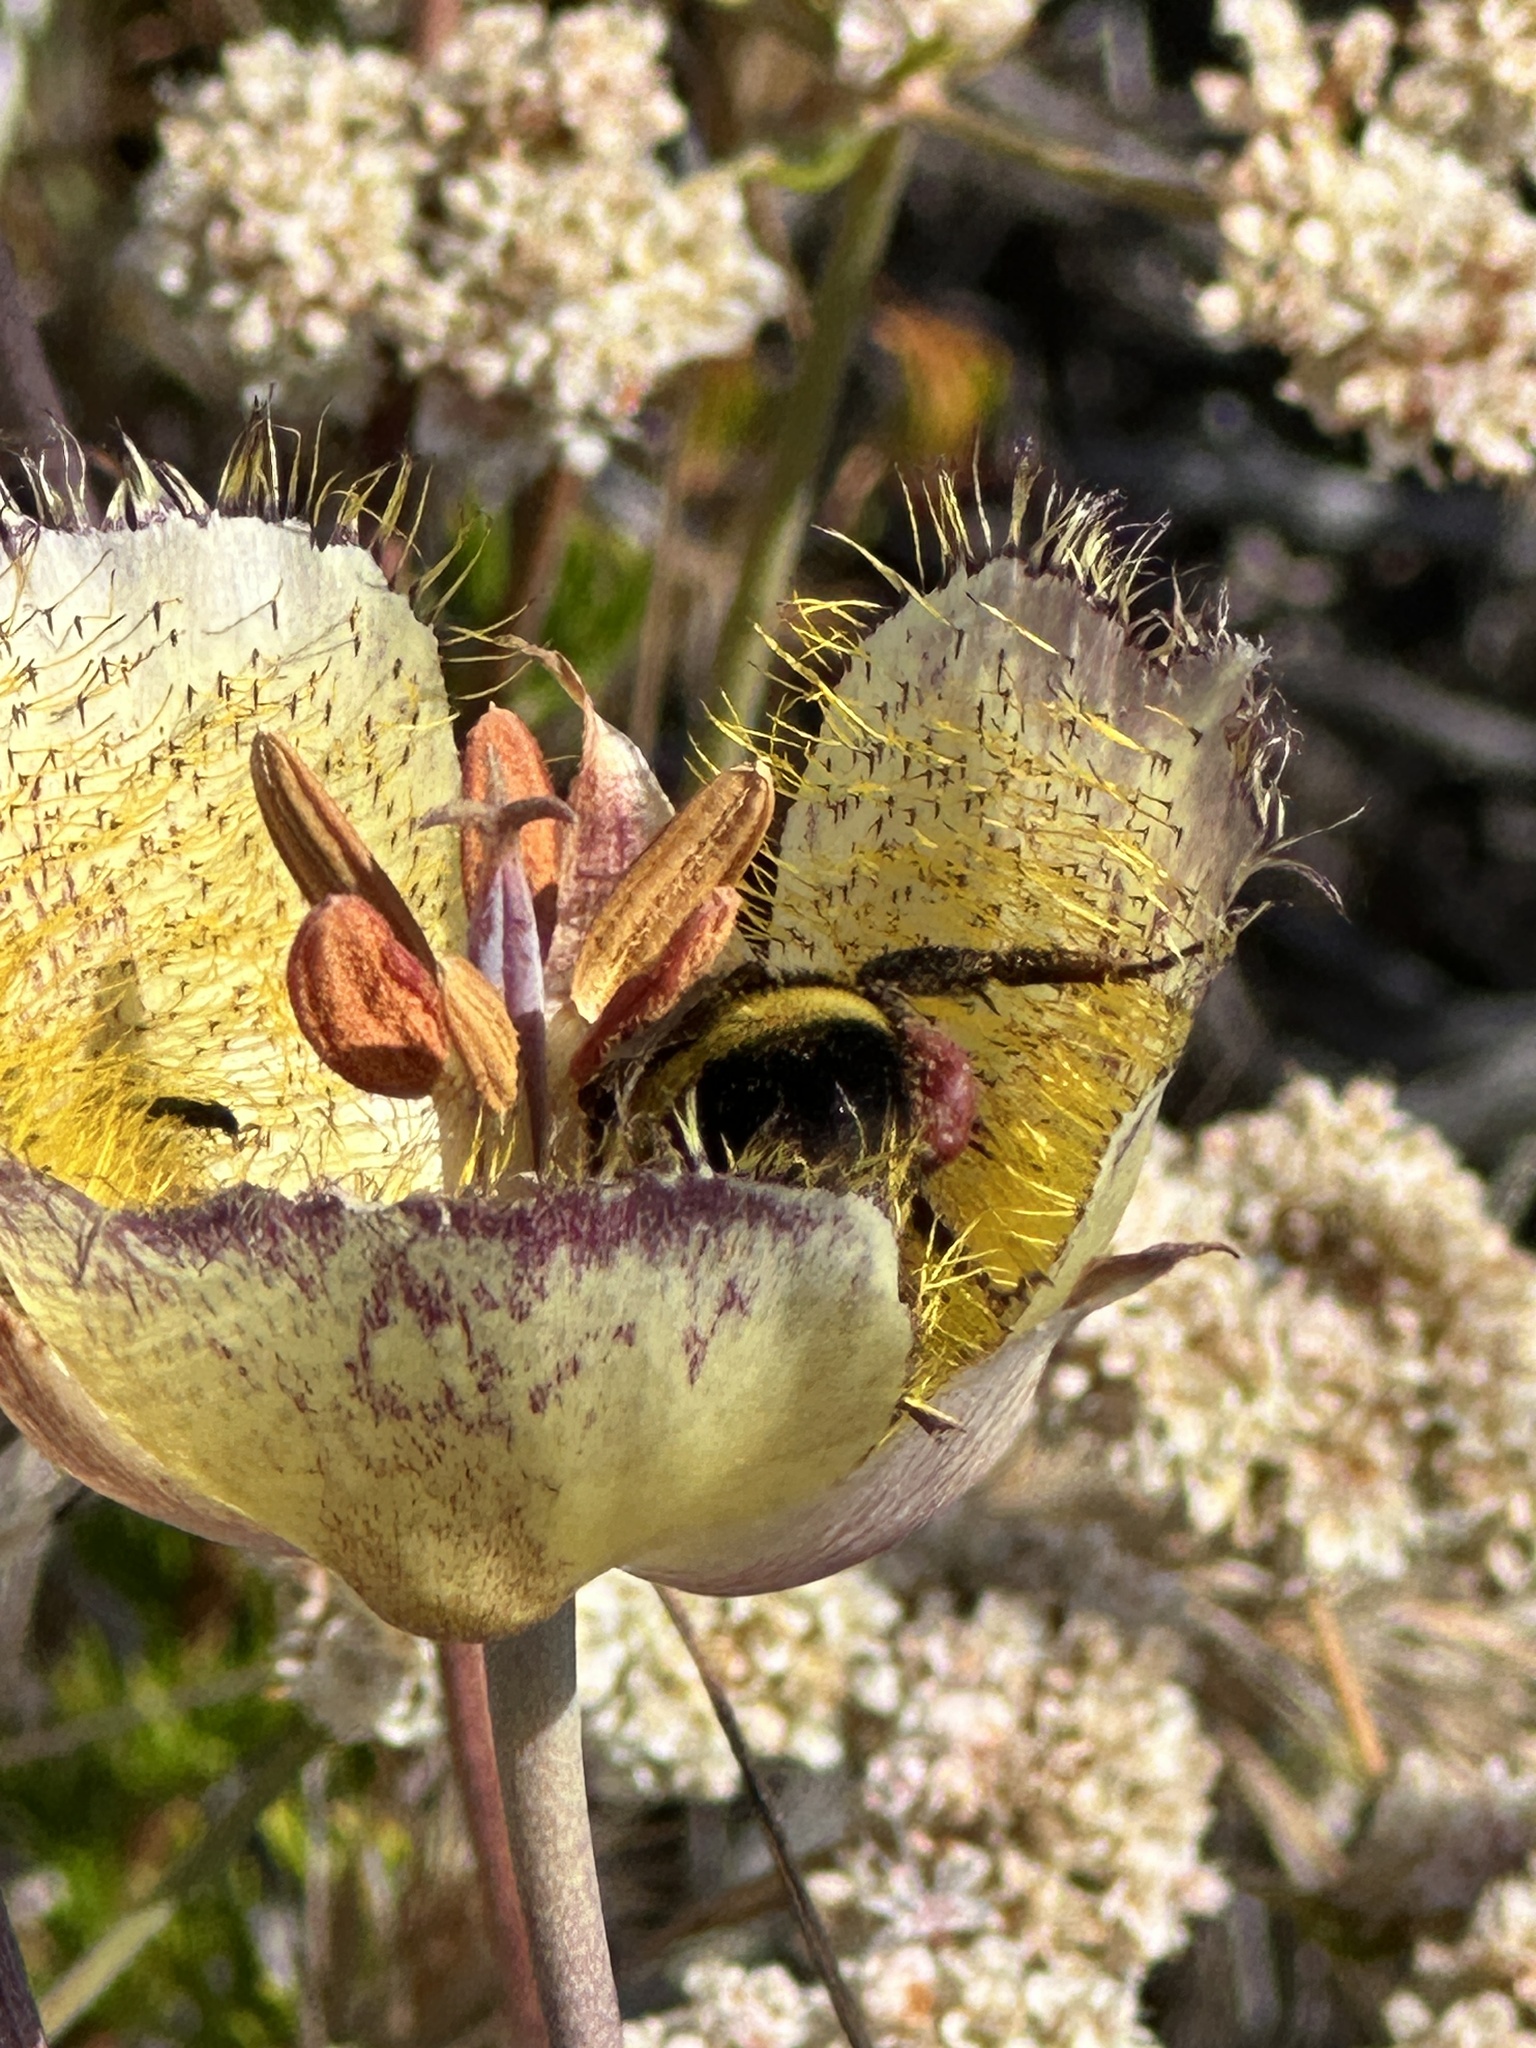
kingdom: Animalia
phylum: Arthropoda
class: Insecta
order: Hymenoptera
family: Apidae
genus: Bombus
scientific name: Bombus crotchii
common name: Crotch bumble bee
